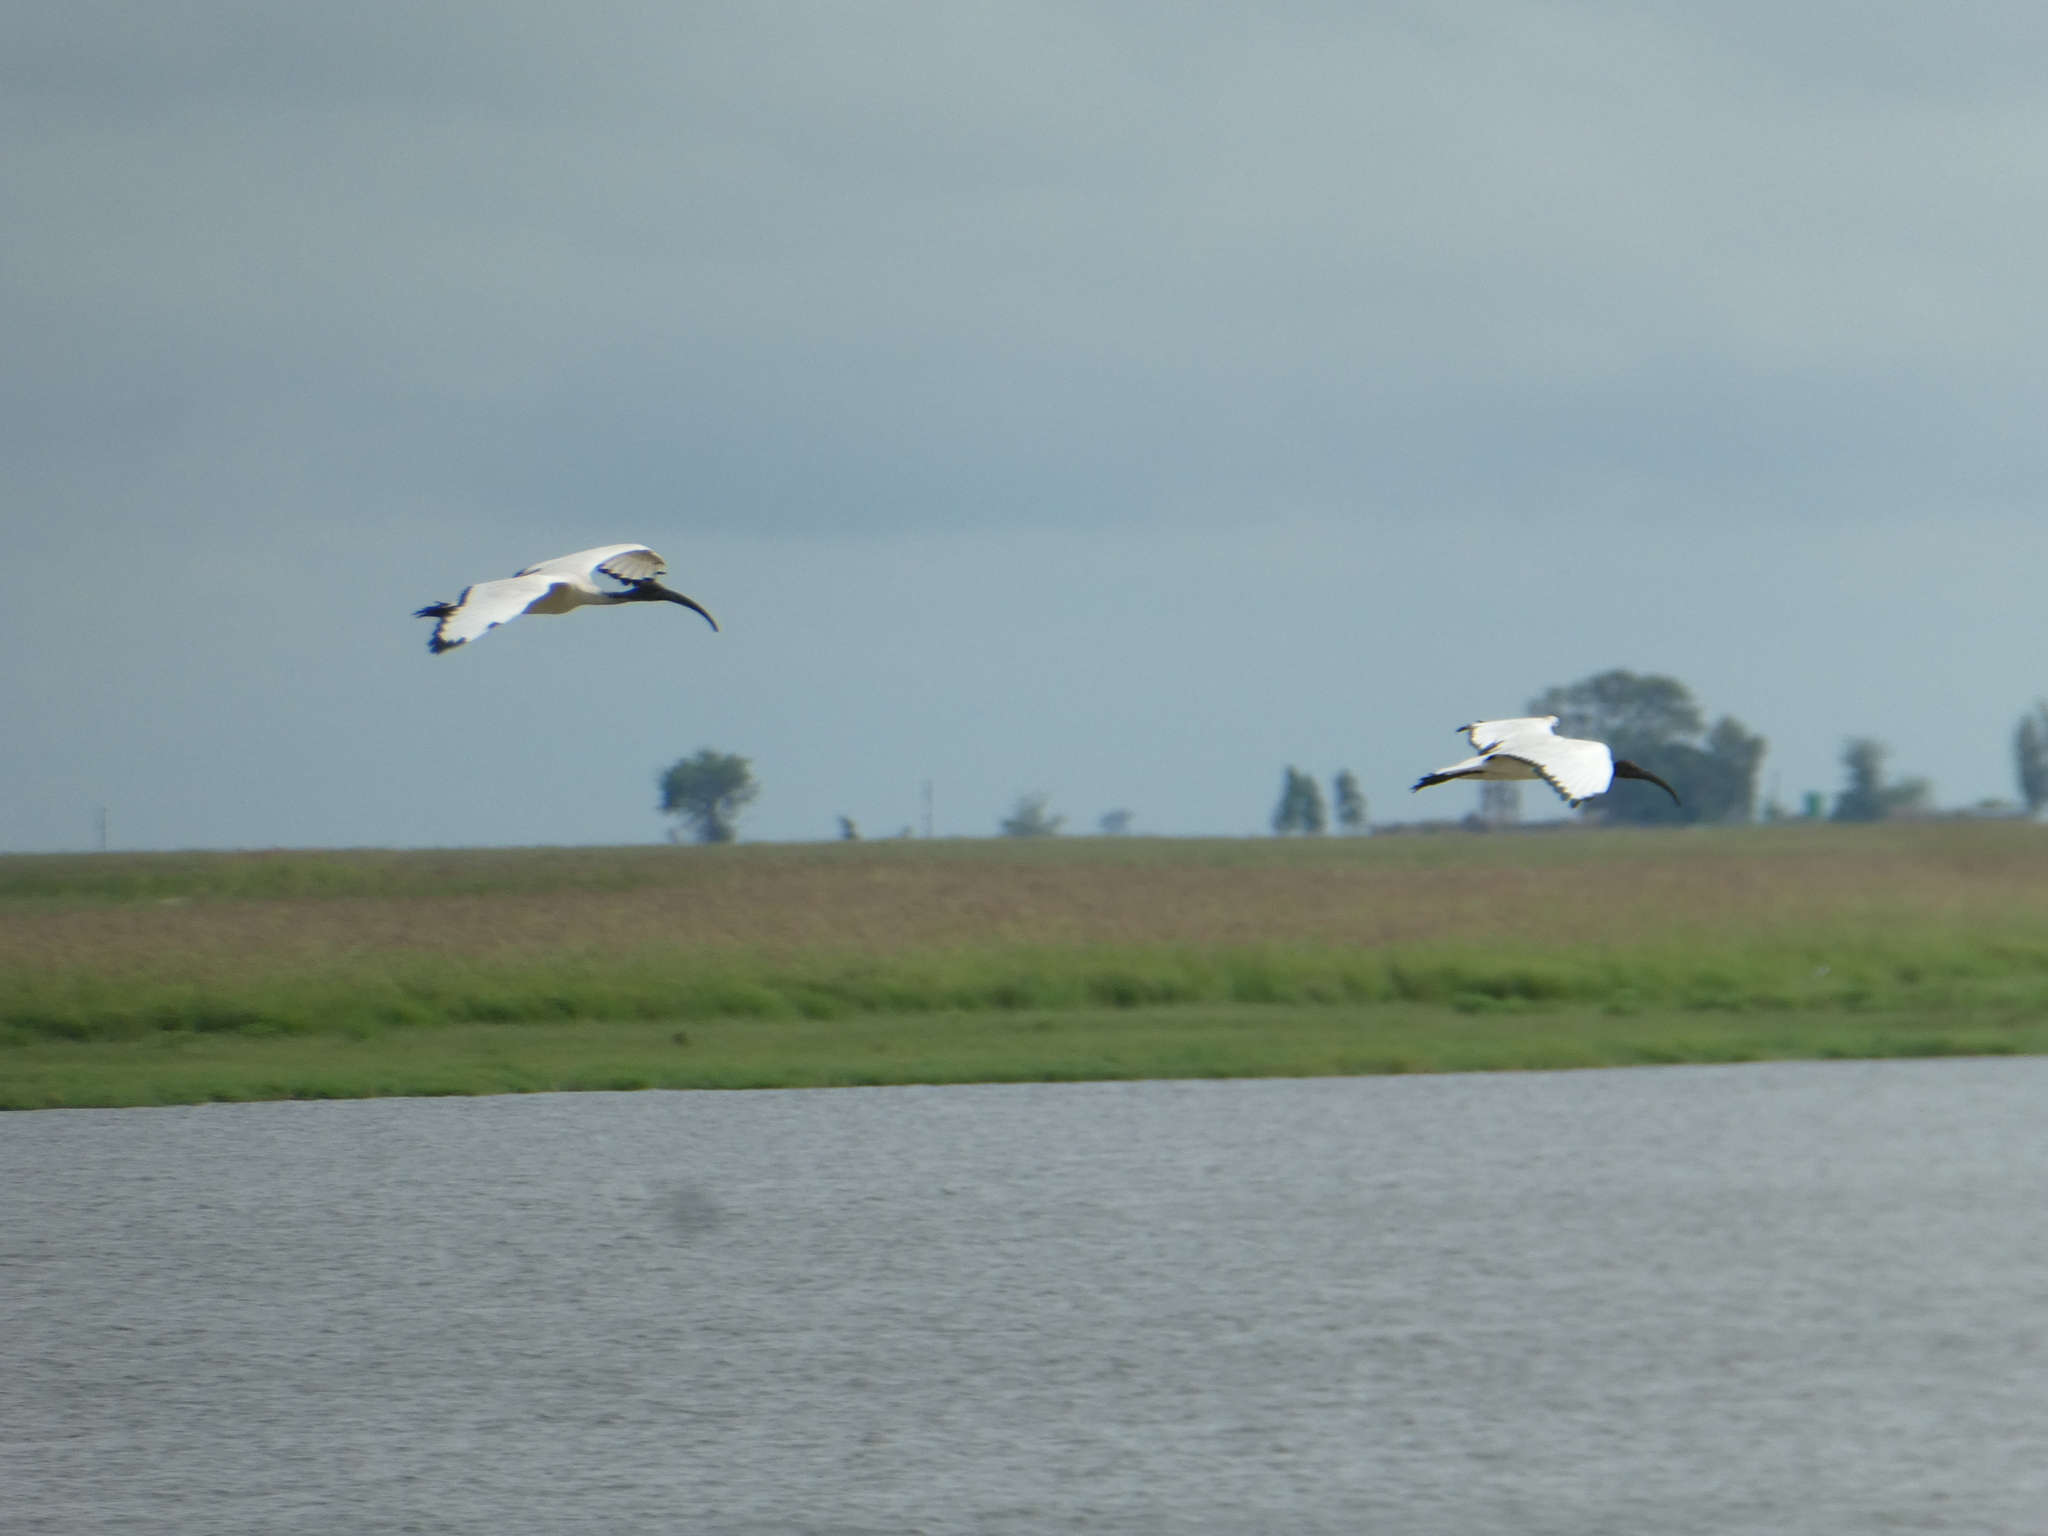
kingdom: Animalia
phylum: Chordata
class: Aves
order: Pelecaniformes
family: Threskiornithidae
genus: Threskiornis
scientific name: Threskiornis aethiopicus
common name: Sacred ibis
